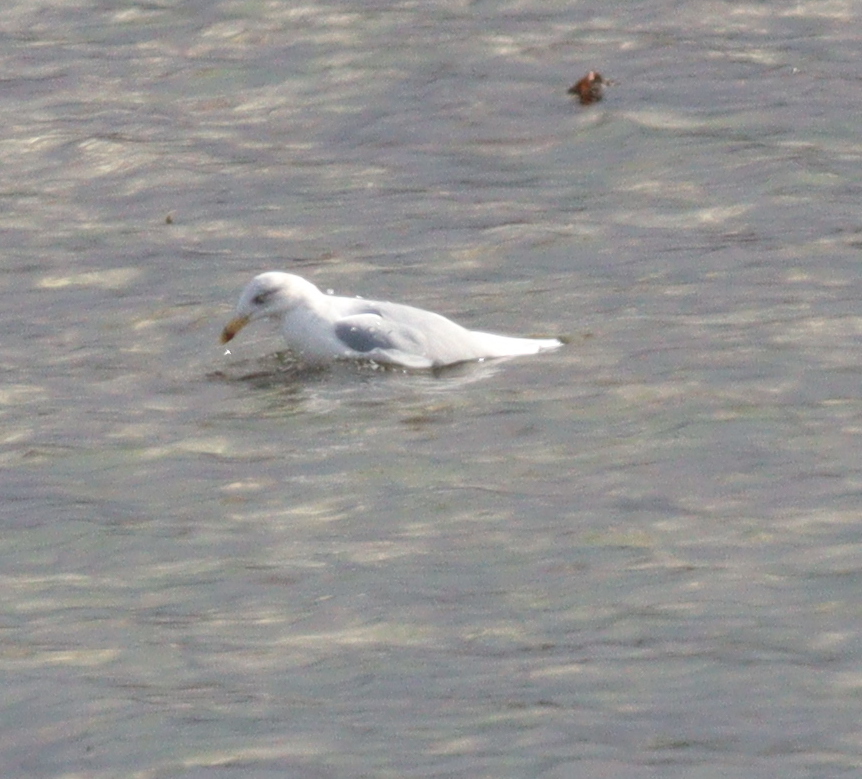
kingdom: Animalia
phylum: Chordata
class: Aves
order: Charadriiformes
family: Laridae
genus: Larus
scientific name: Larus argentatus
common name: Herring gull
